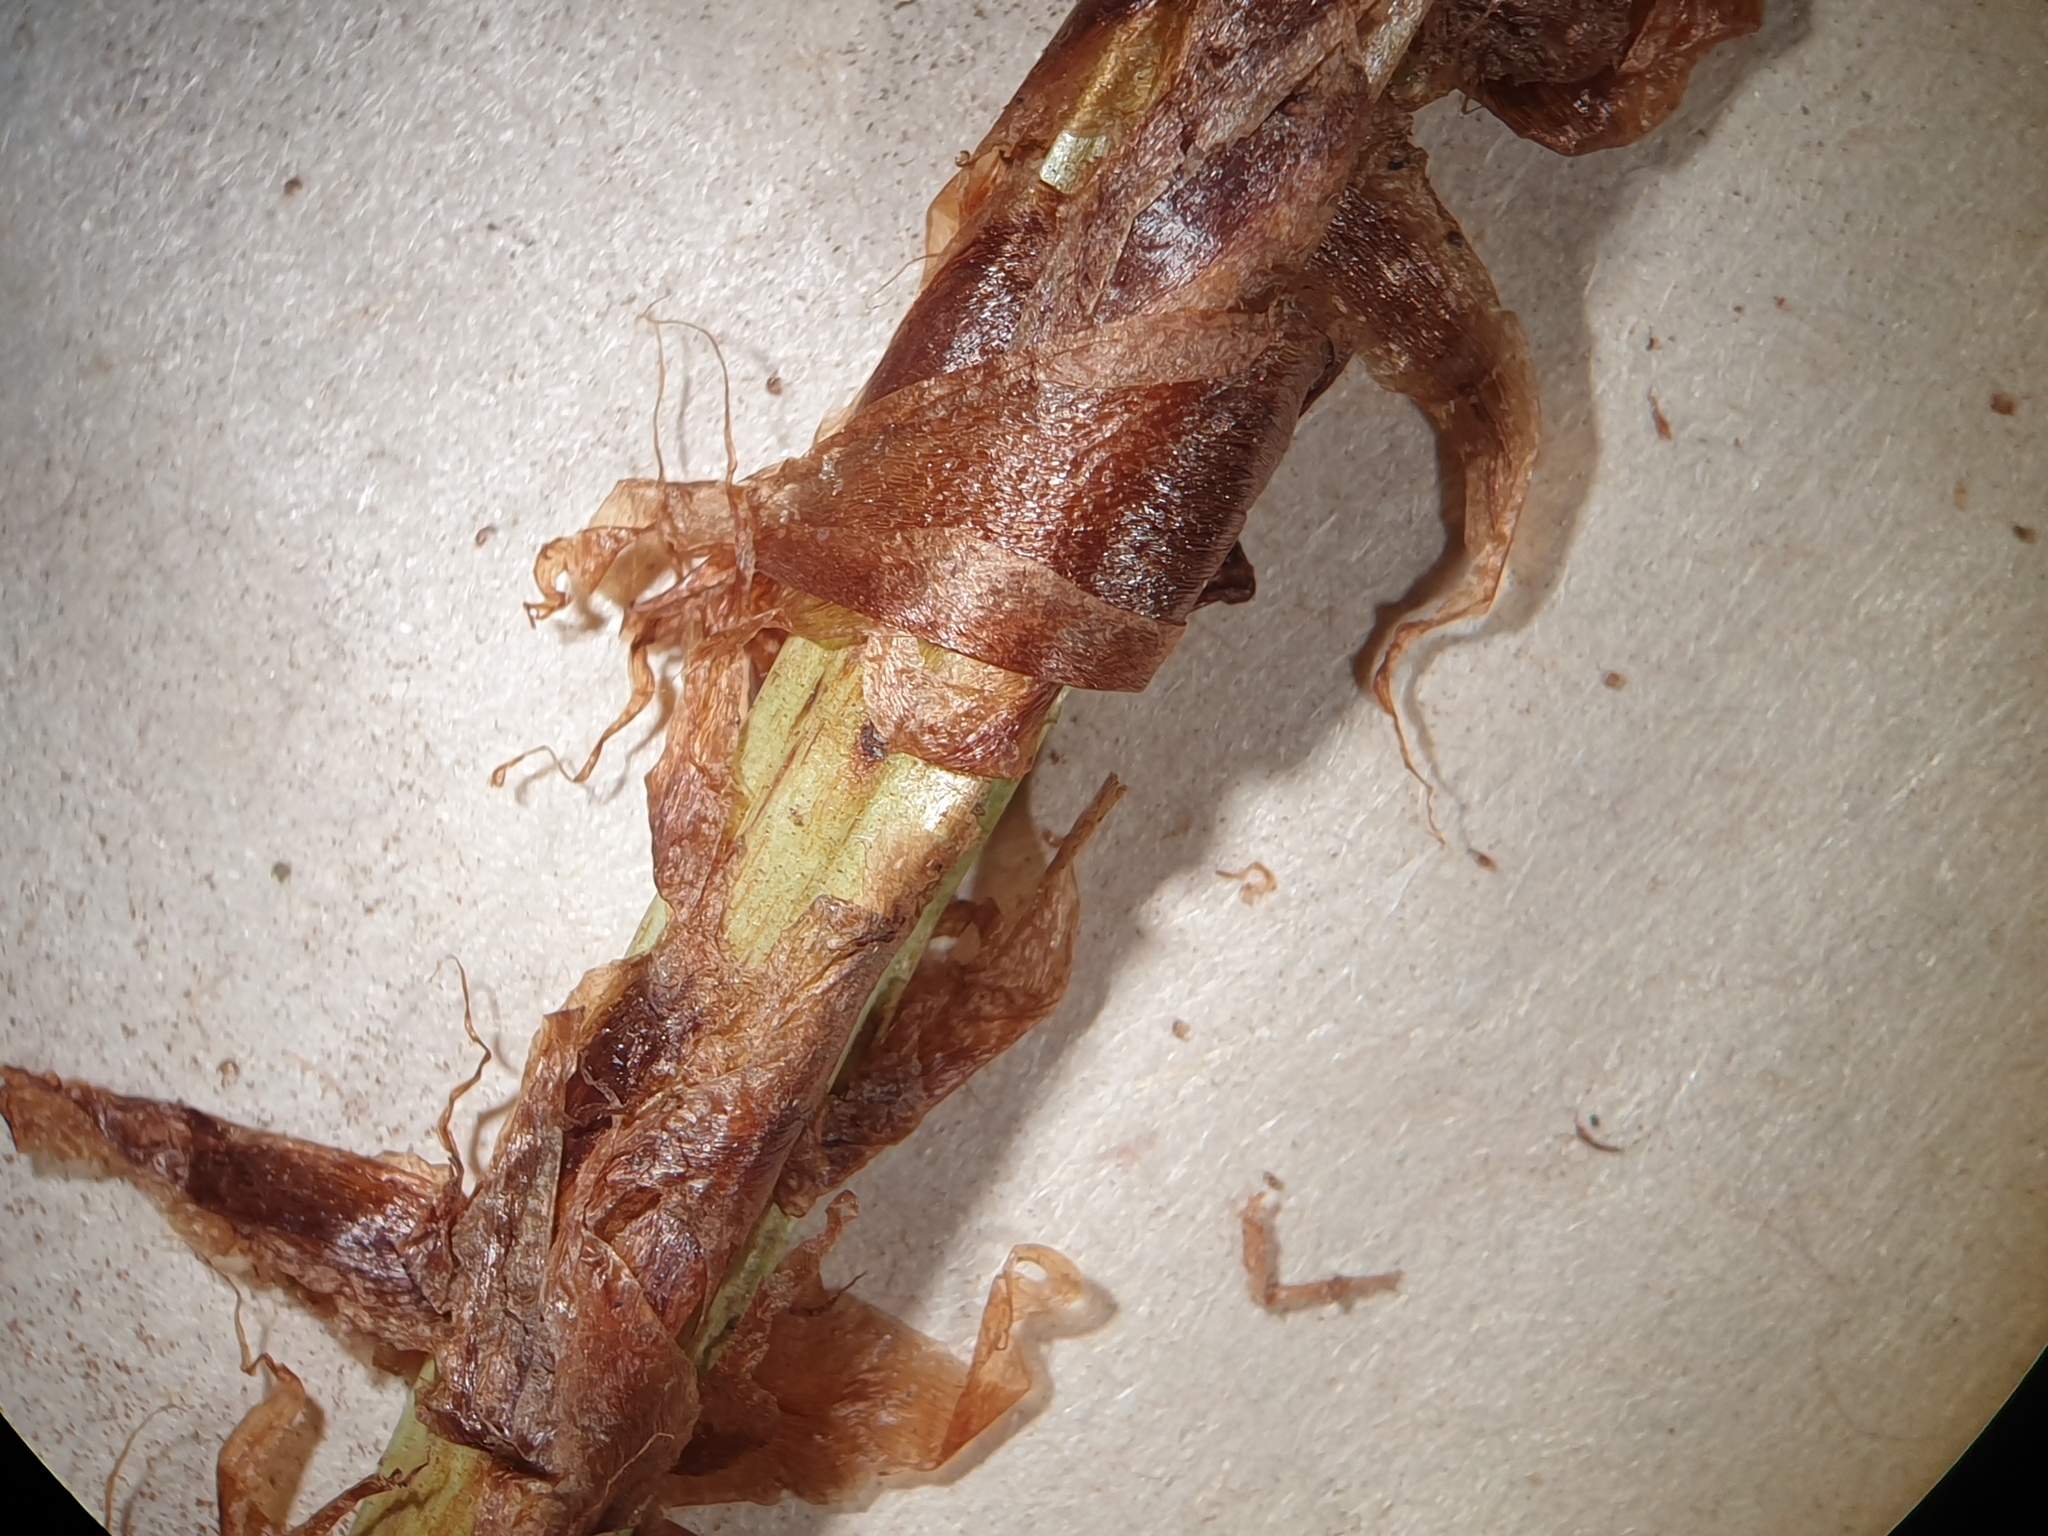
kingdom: Plantae
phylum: Tracheophyta
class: Polypodiopsida
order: Polypodiales
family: Dryopteridaceae
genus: Dryopteris
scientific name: Dryopteris expansa
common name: Northern buckler fern
